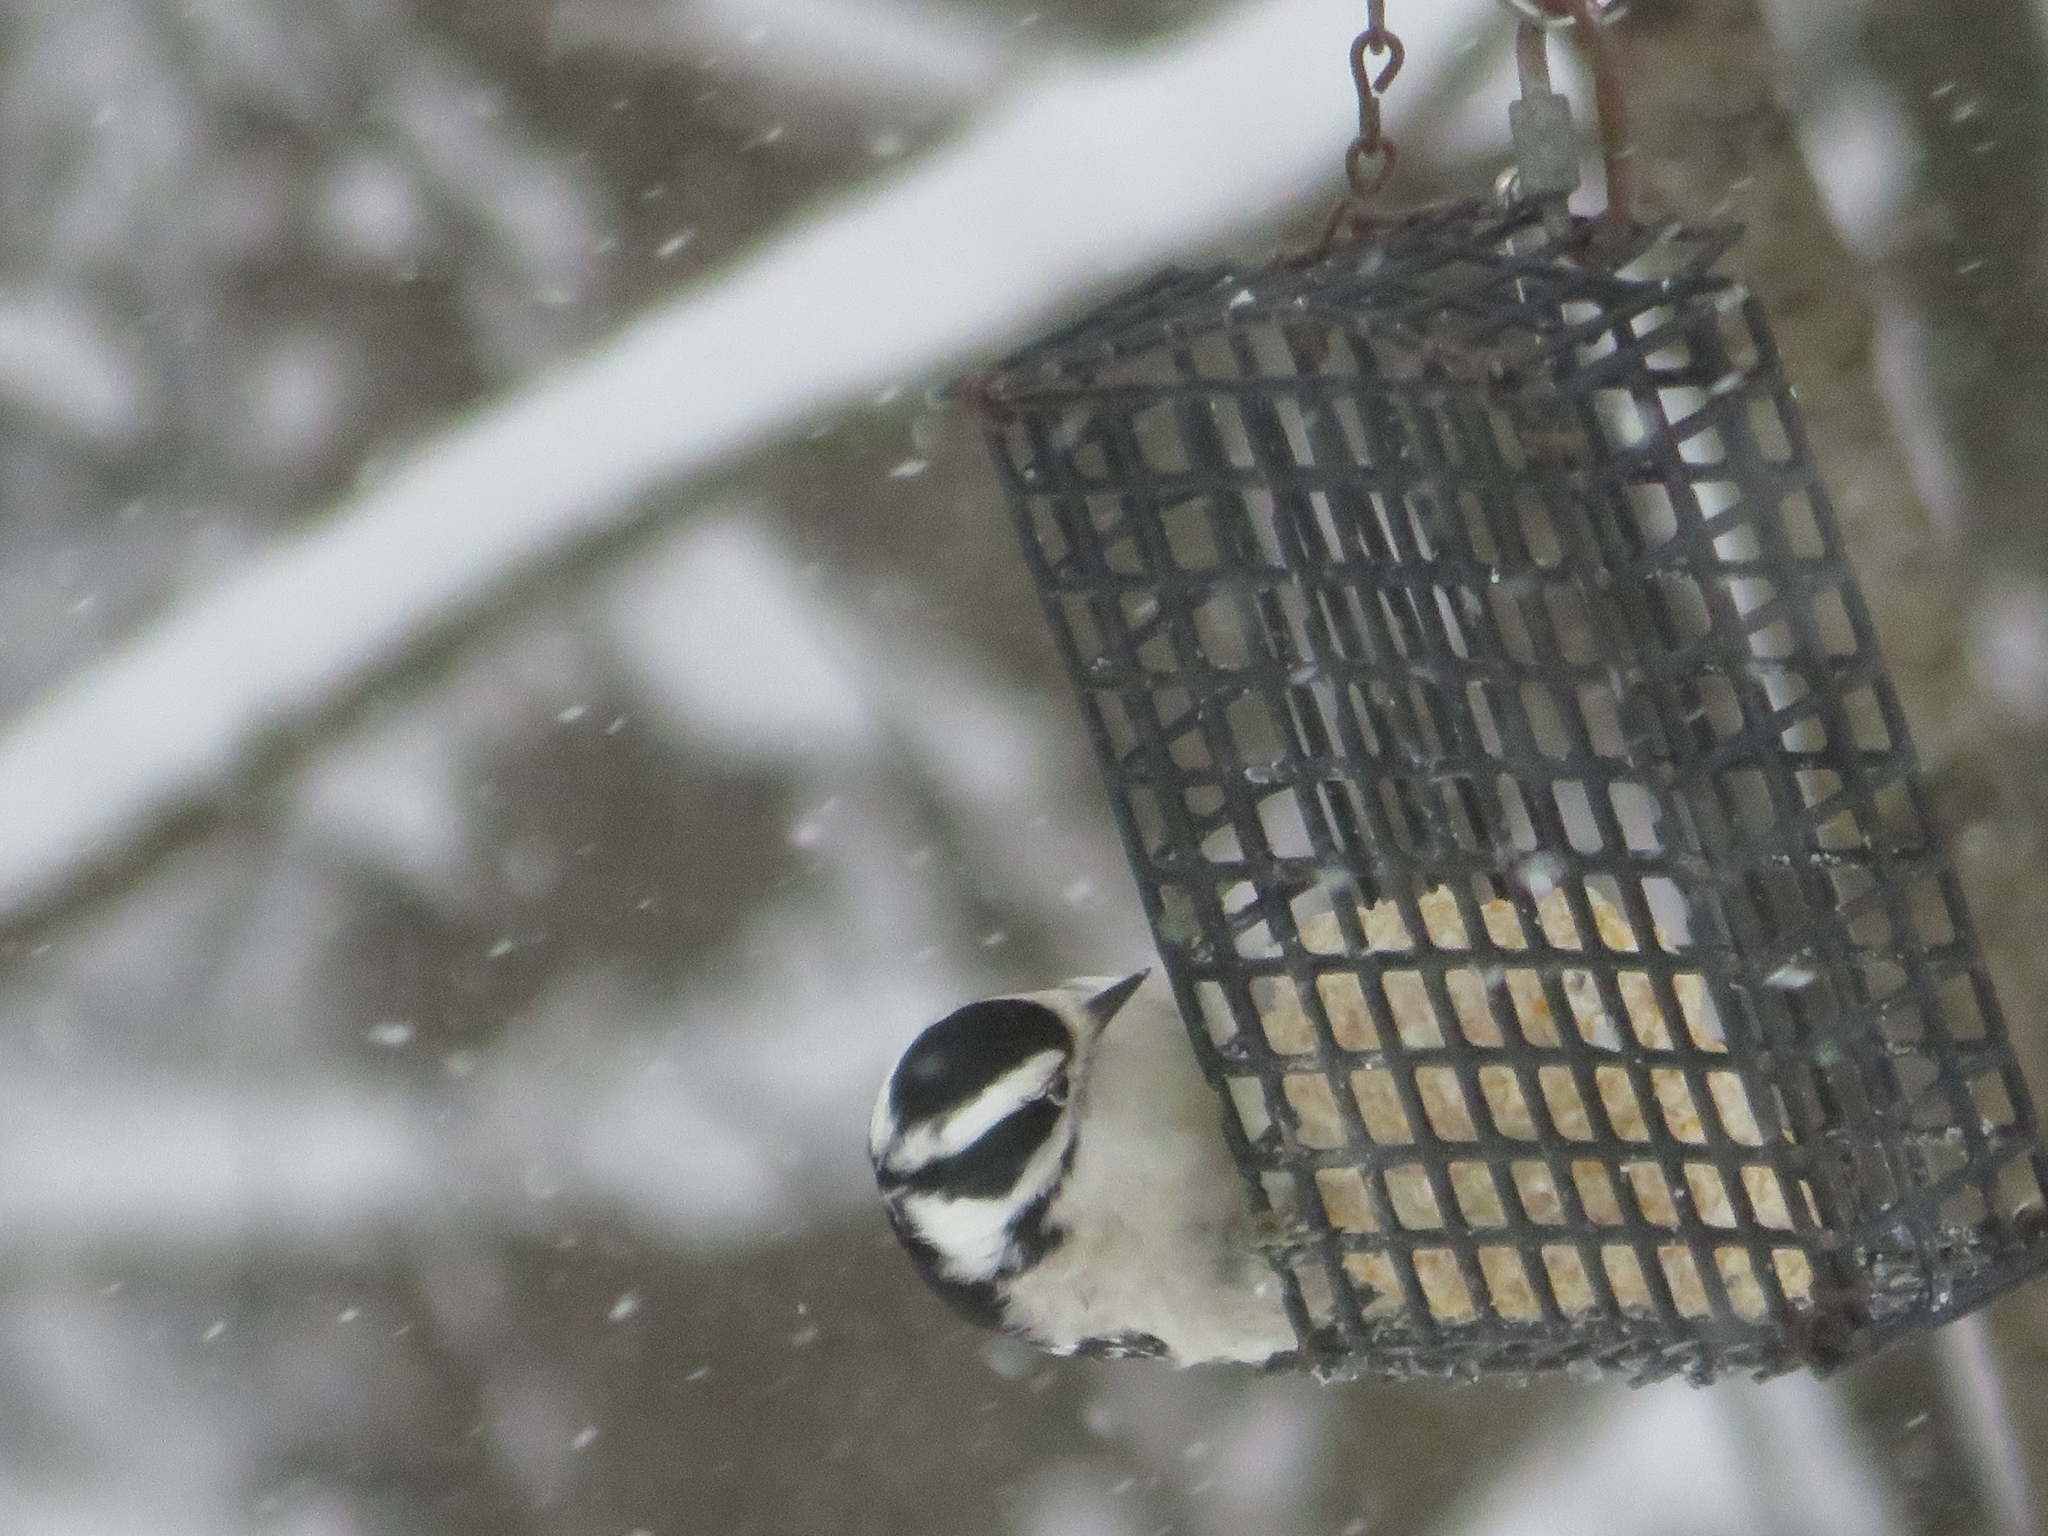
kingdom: Animalia
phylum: Chordata
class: Aves
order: Piciformes
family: Picidae
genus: Dryobates
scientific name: Dryobates pubescens
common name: Downy woodpecker
